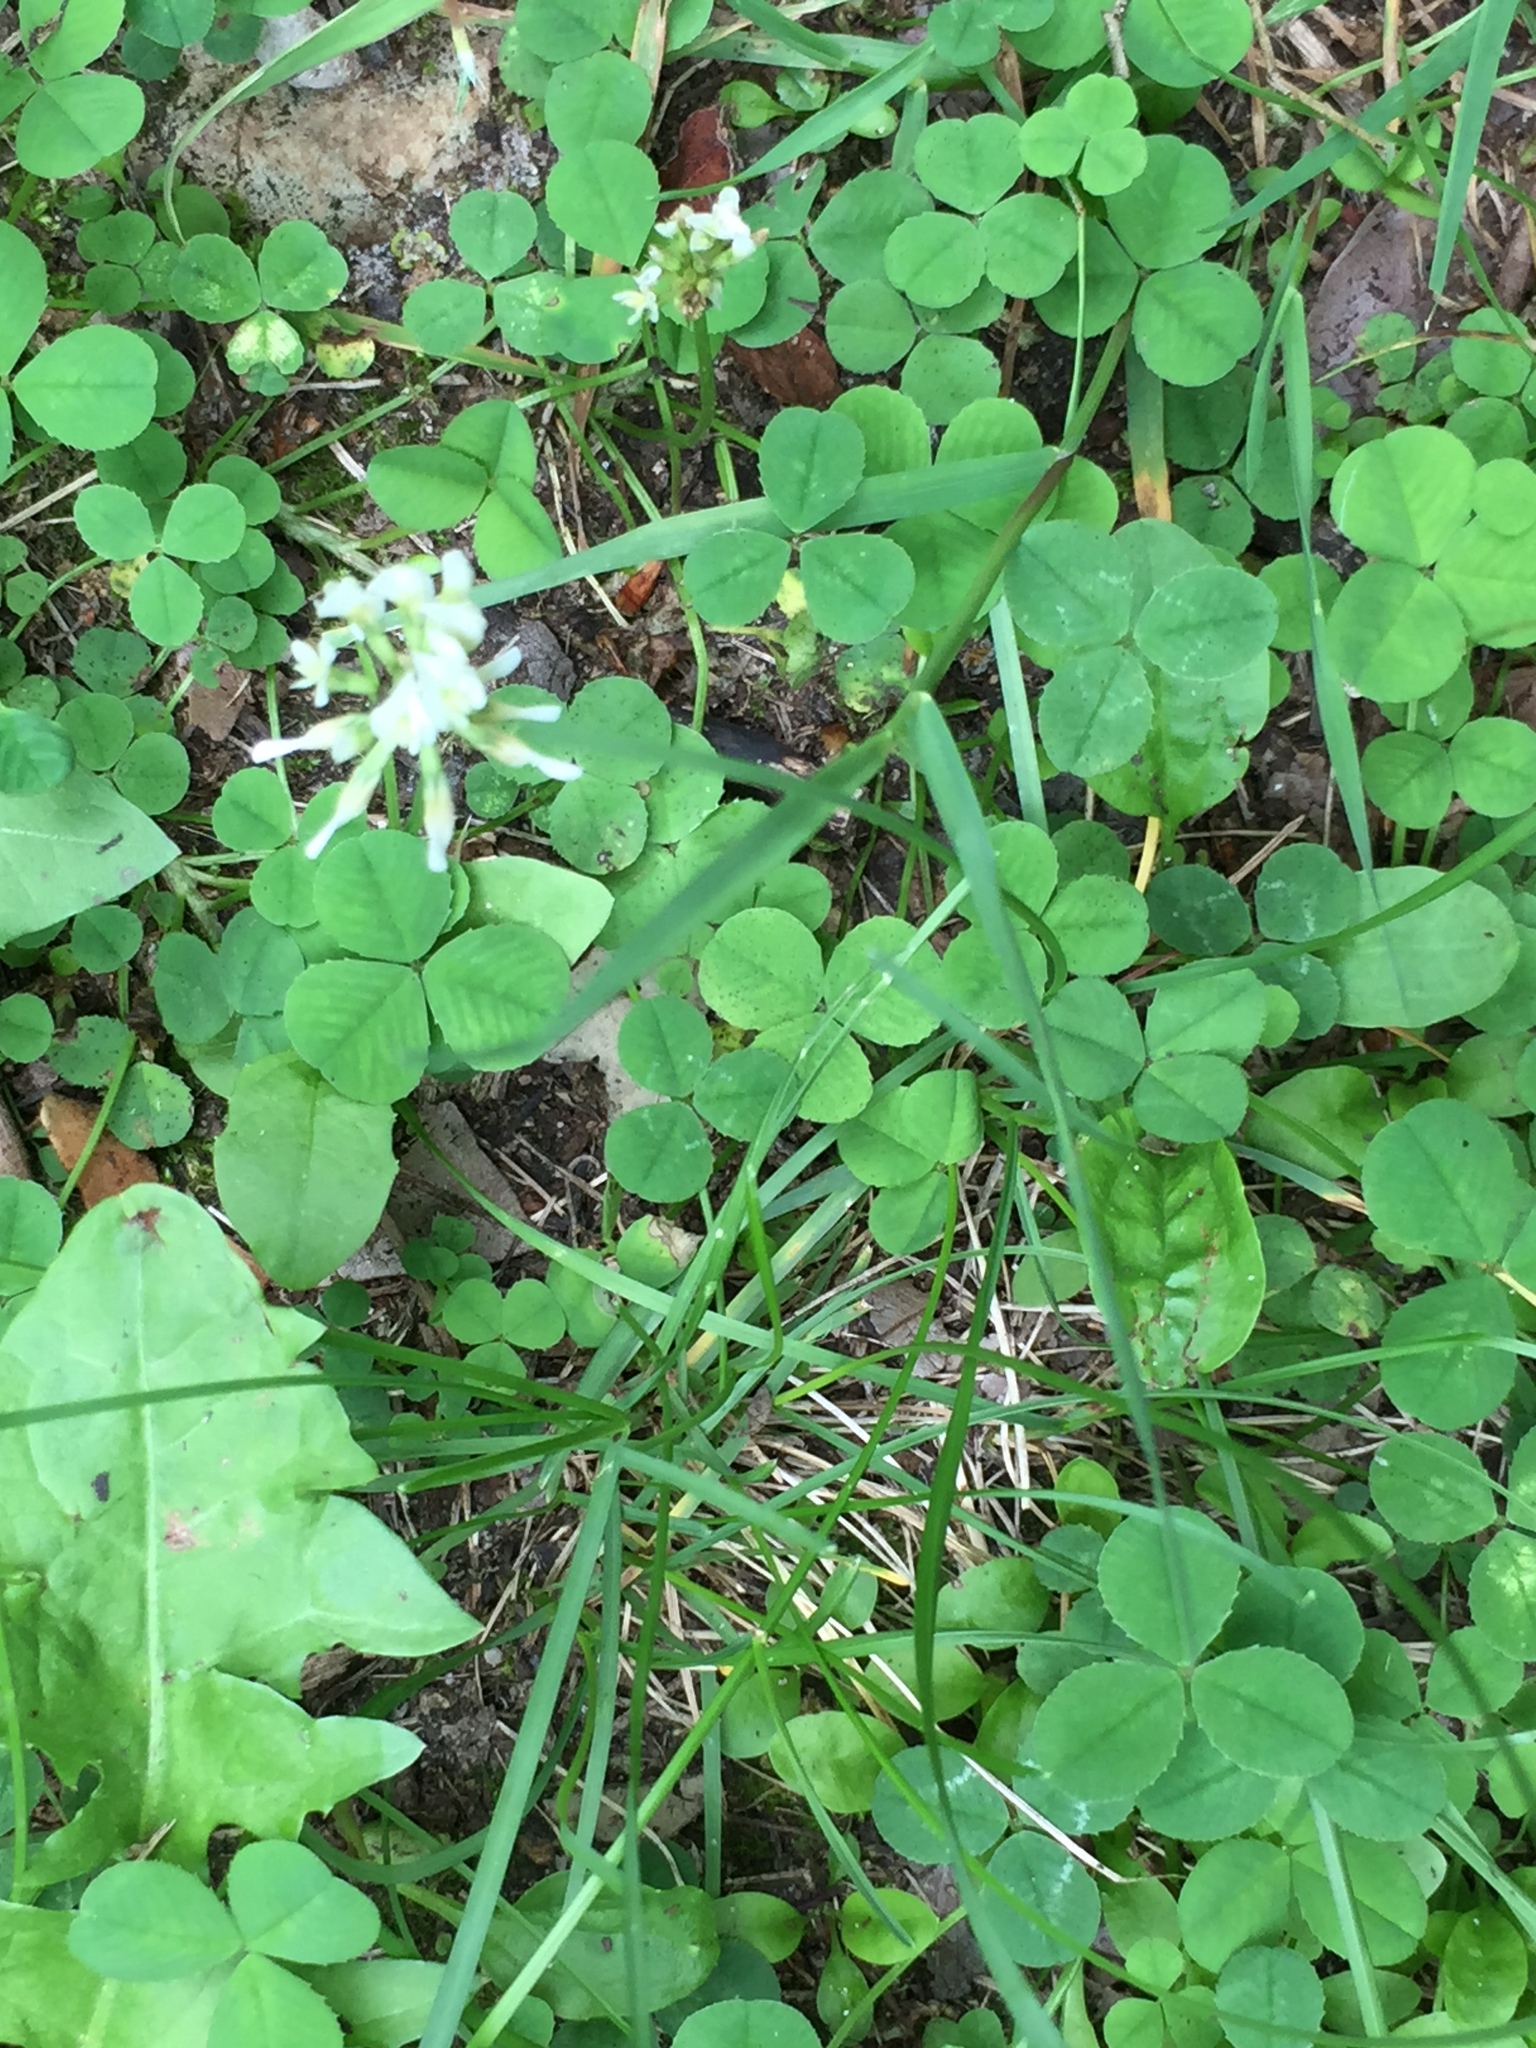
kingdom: Plantae
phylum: Tracheophyta
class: Magnoliopsida
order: Fabales
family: Fabaceae
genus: Trifolium
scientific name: Trifolium repens
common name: White clover
